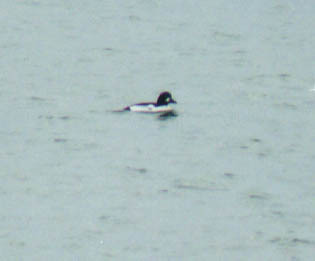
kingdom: Animalia
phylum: Chordata
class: Aves
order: Anseriformes
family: Anatidae
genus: Bucephala
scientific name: Bucephala clangula
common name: Common goldeneye
